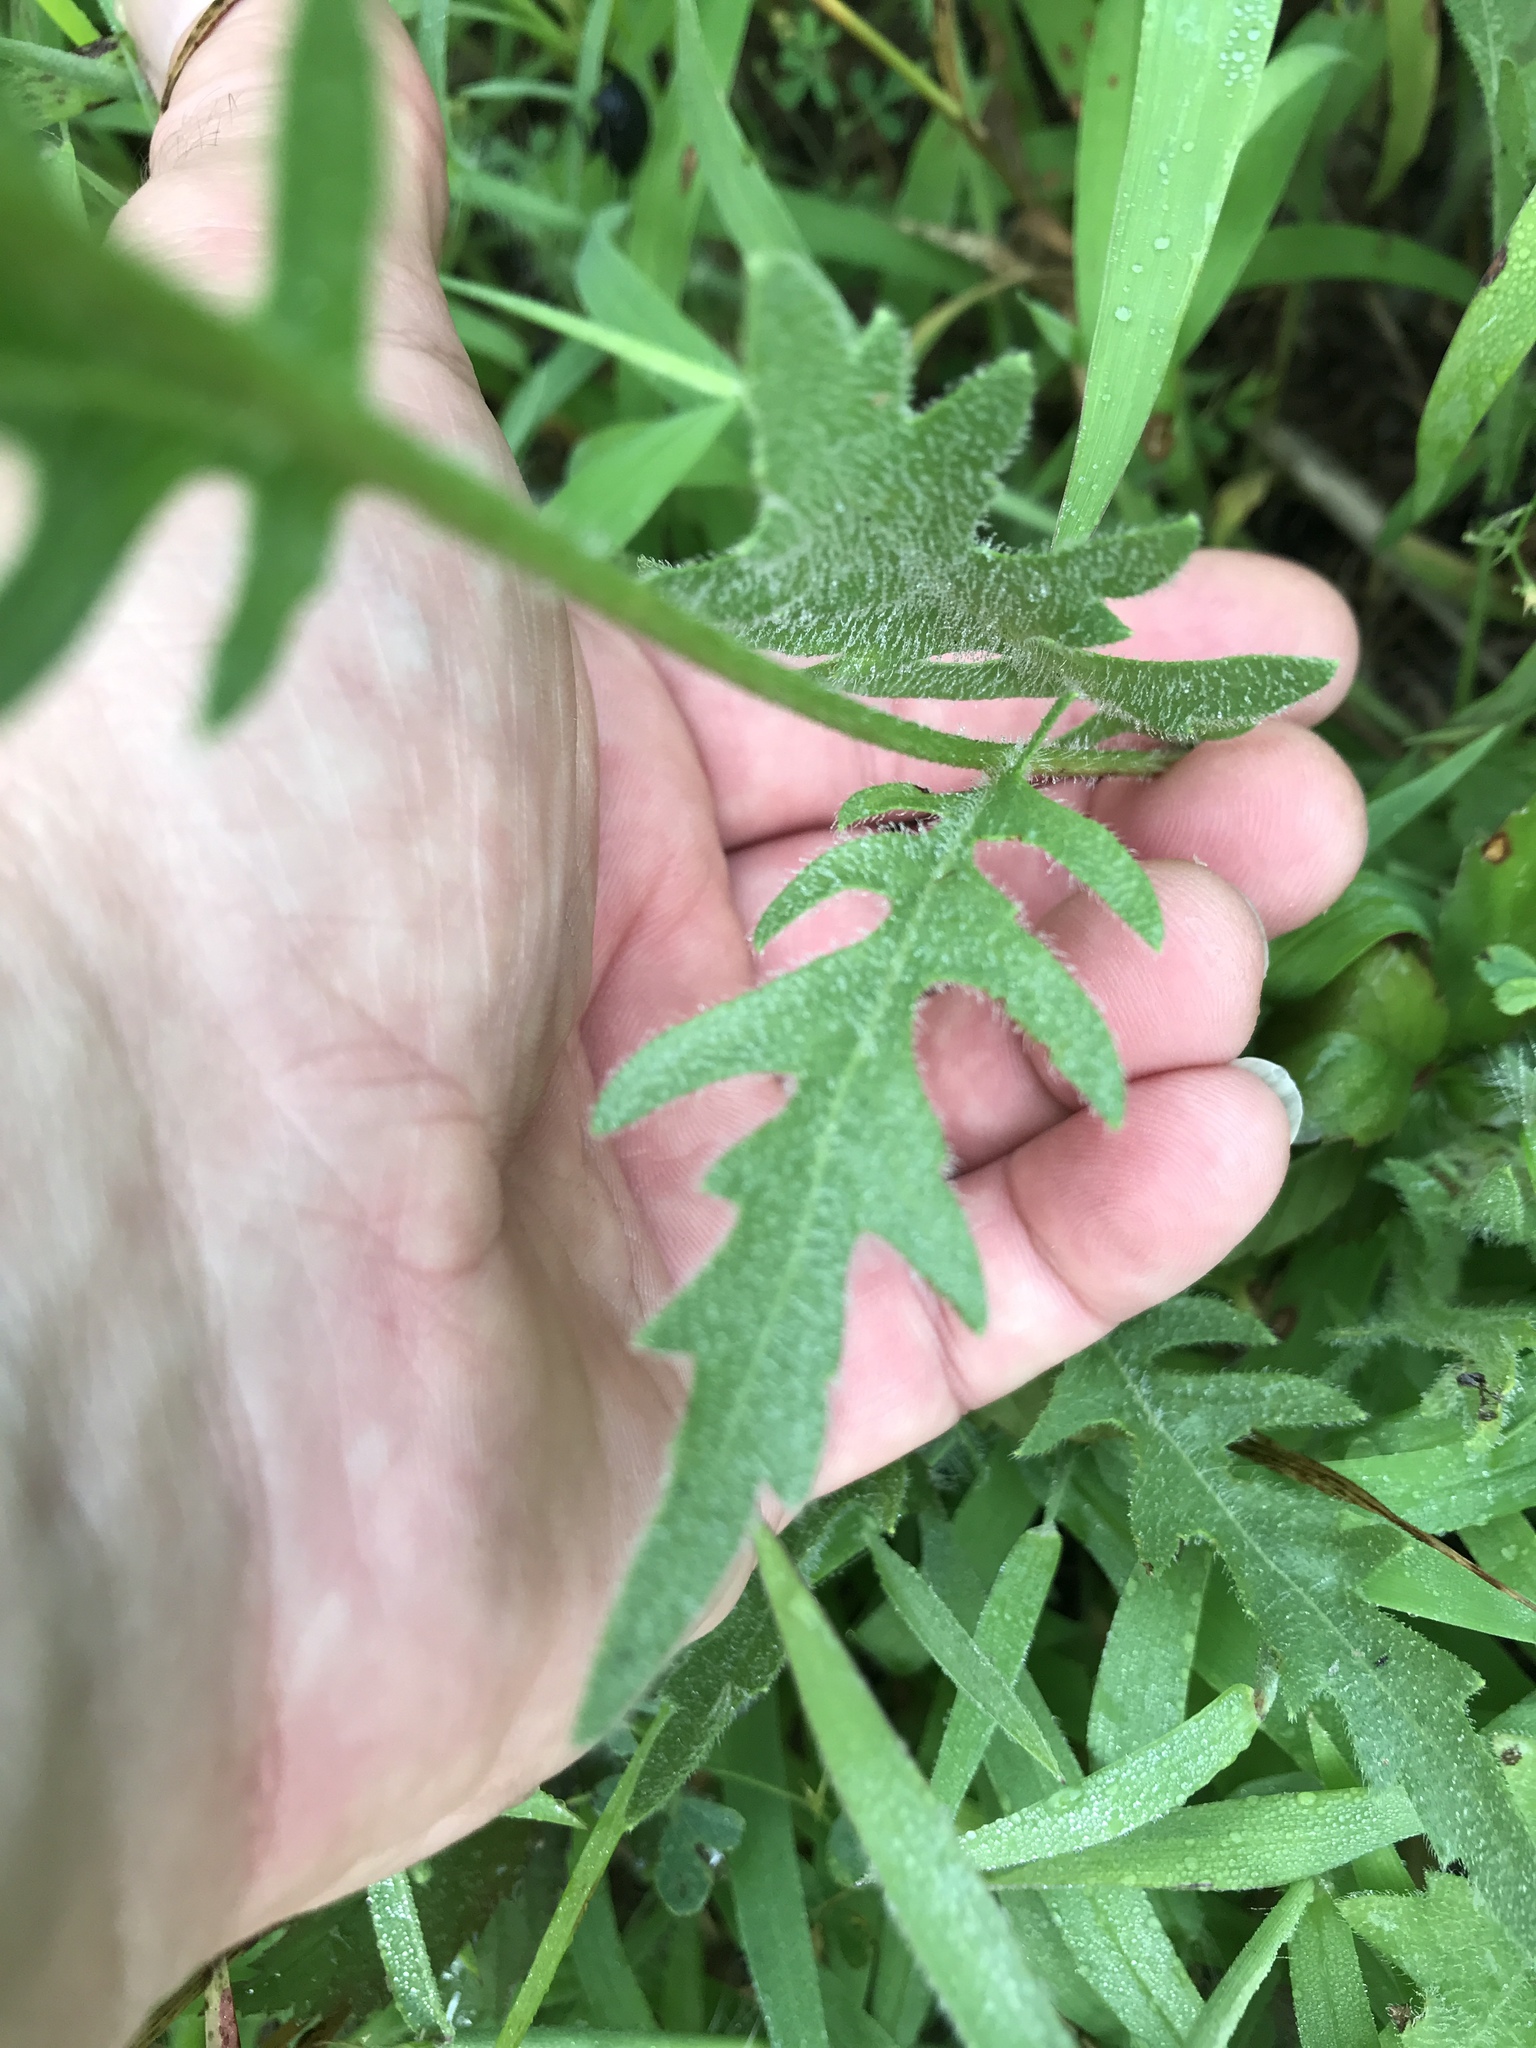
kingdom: Plantae
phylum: Tracheophyta
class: Magnoliopsida
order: Asterales
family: Asteraceae
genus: Engelmannia
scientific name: Engelmannia peristenia
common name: Engelmann's daisy
